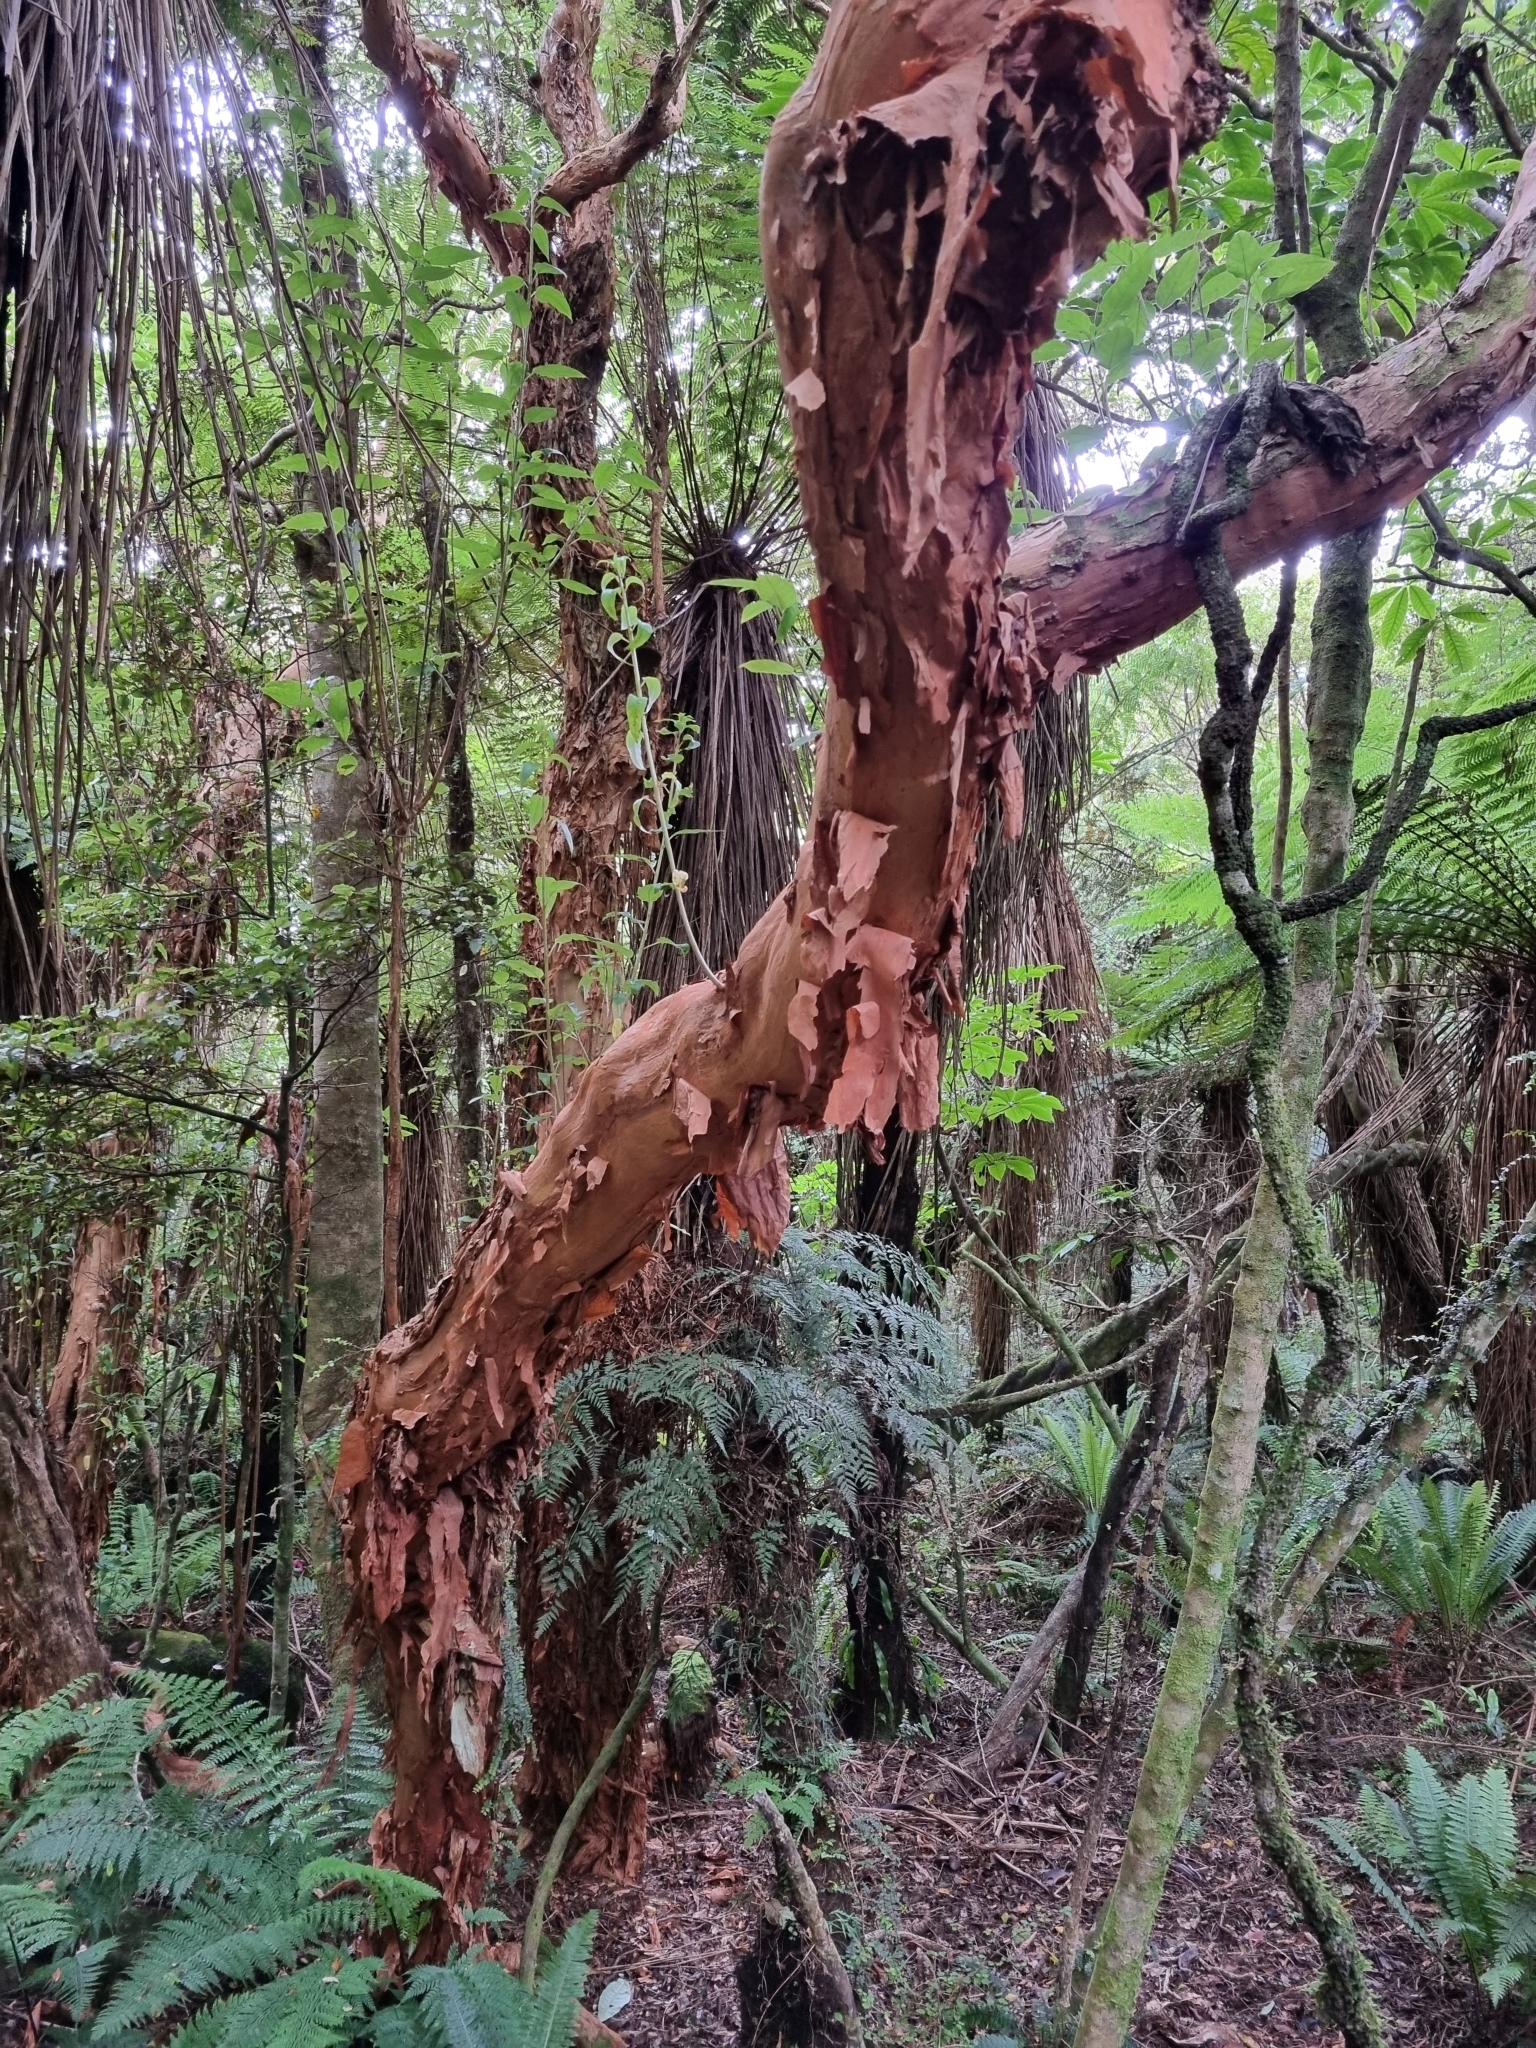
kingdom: Plantae
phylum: Tracheophyta
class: Magnoliopsida
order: Myrtales
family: Onagraceae
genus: Fuchsia
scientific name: Fuchsia excorticata
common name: Tree fuchsia
